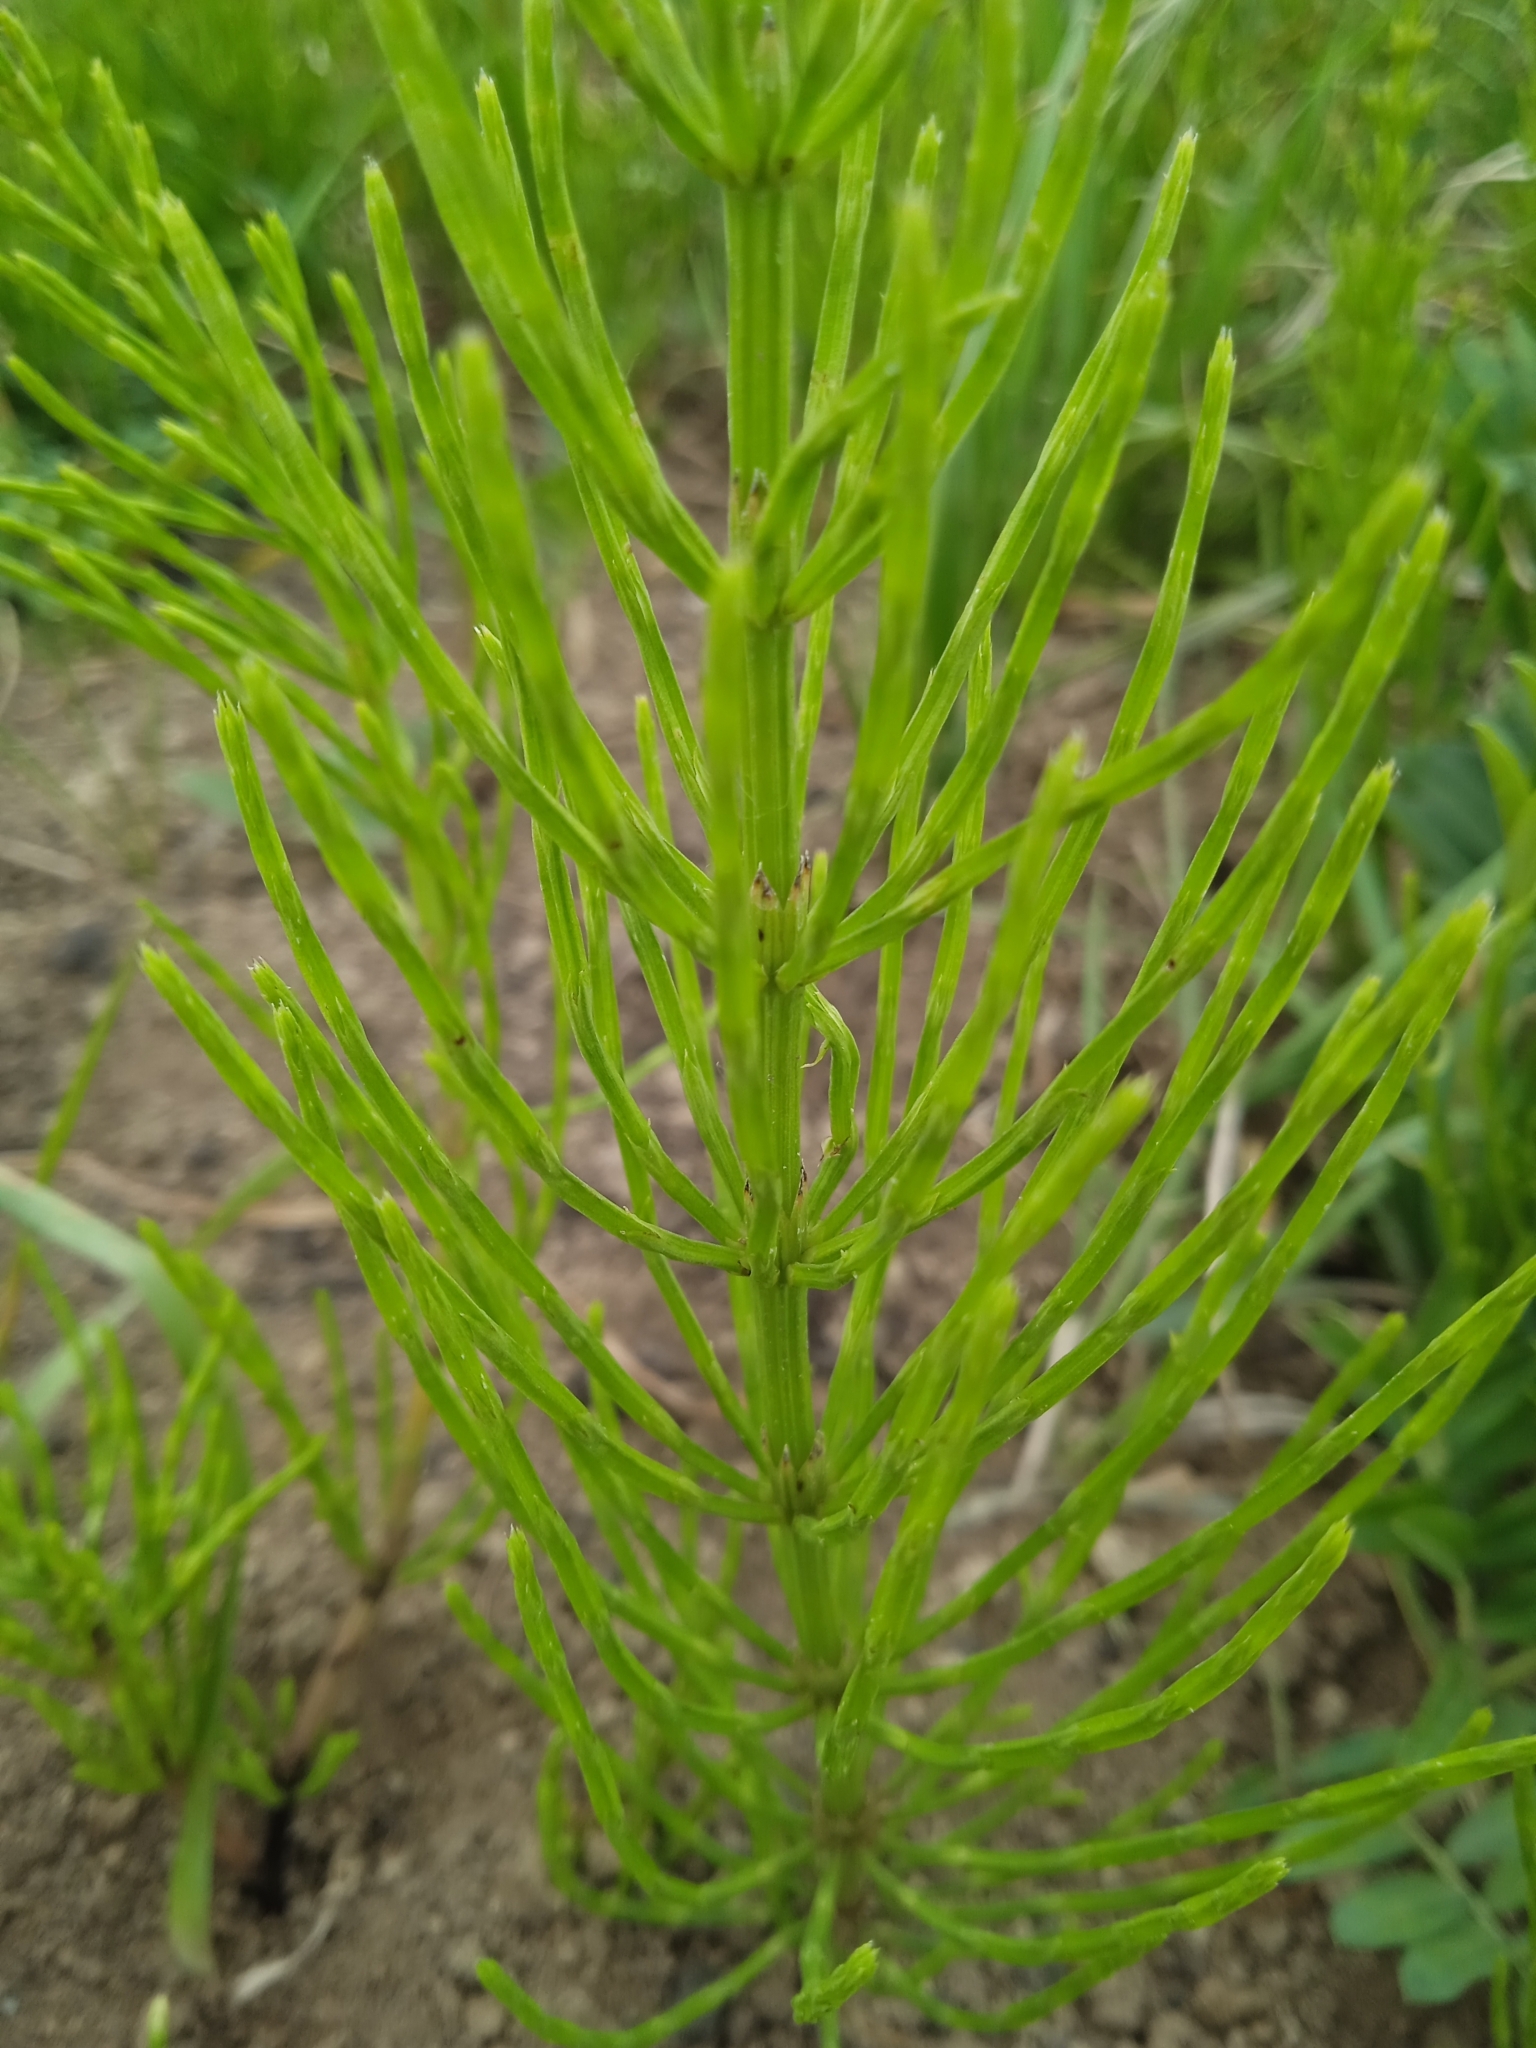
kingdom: Plantae
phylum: Tracheophyta
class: Polypodiopsida
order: Equisetales
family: Equisetaceae
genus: Equisetum
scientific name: Equisetum arvense
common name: Field horsetail
